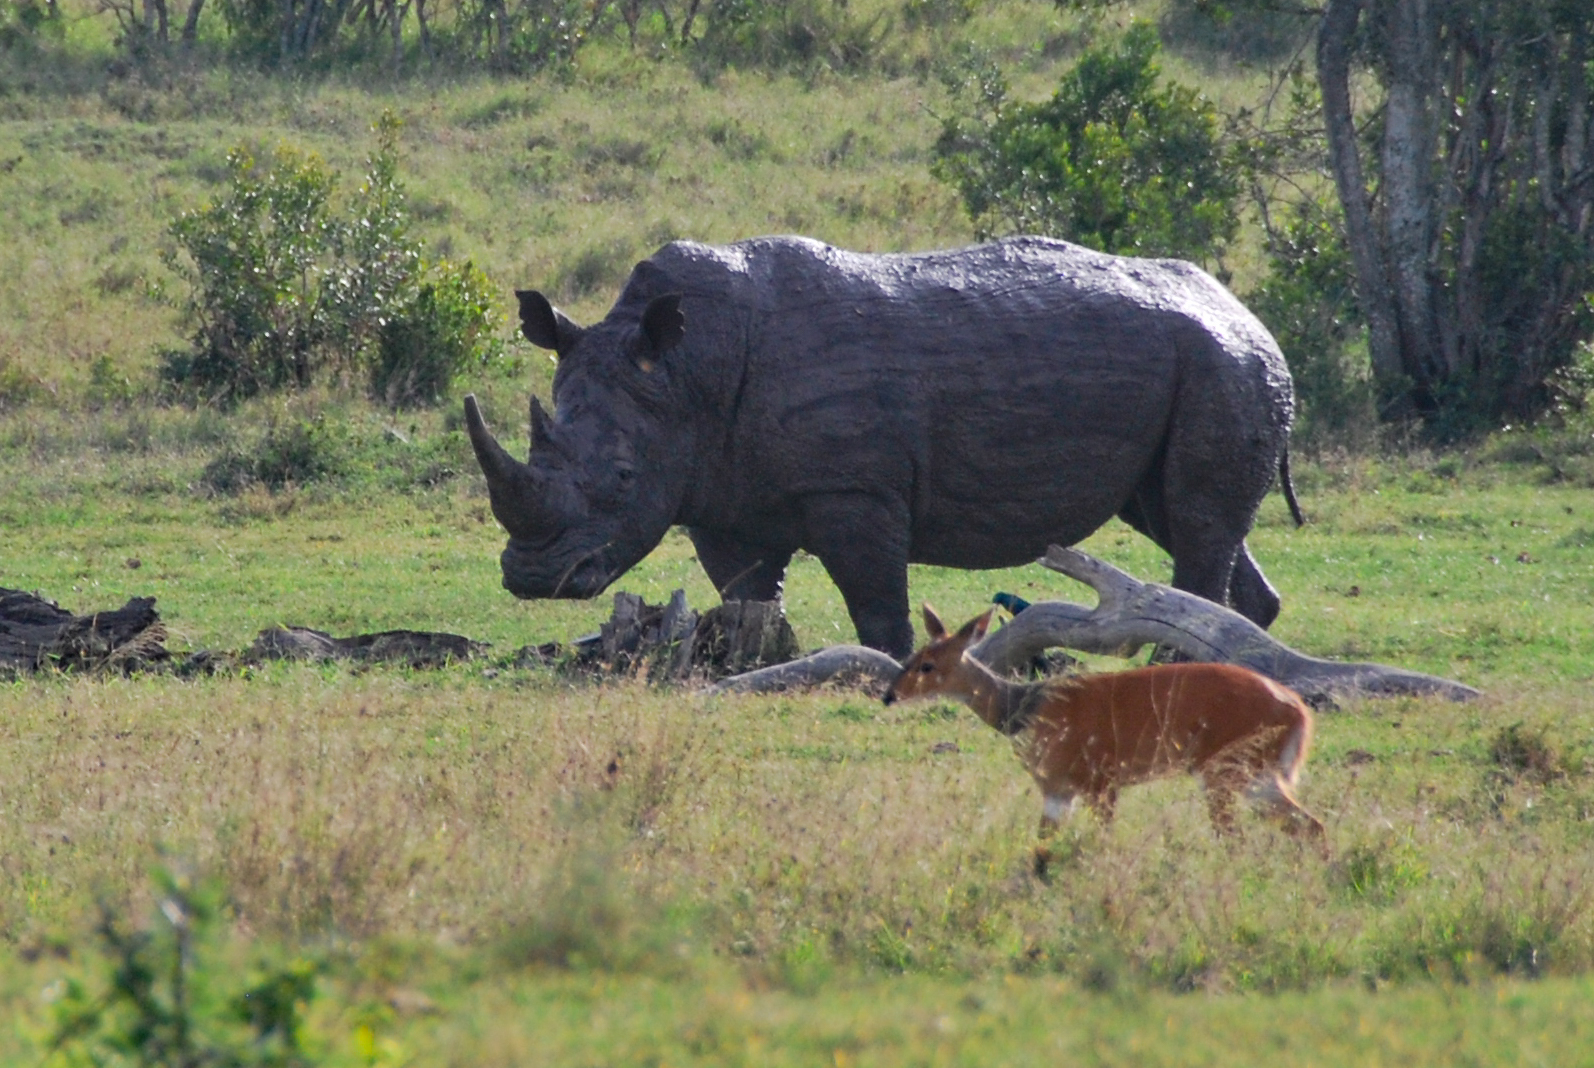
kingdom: Animalia
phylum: Chordata
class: Mammalia
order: Artiodactyla
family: Bovidae
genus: Tragelaphus
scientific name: Tragelaphus scriptus
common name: Bushbuck
